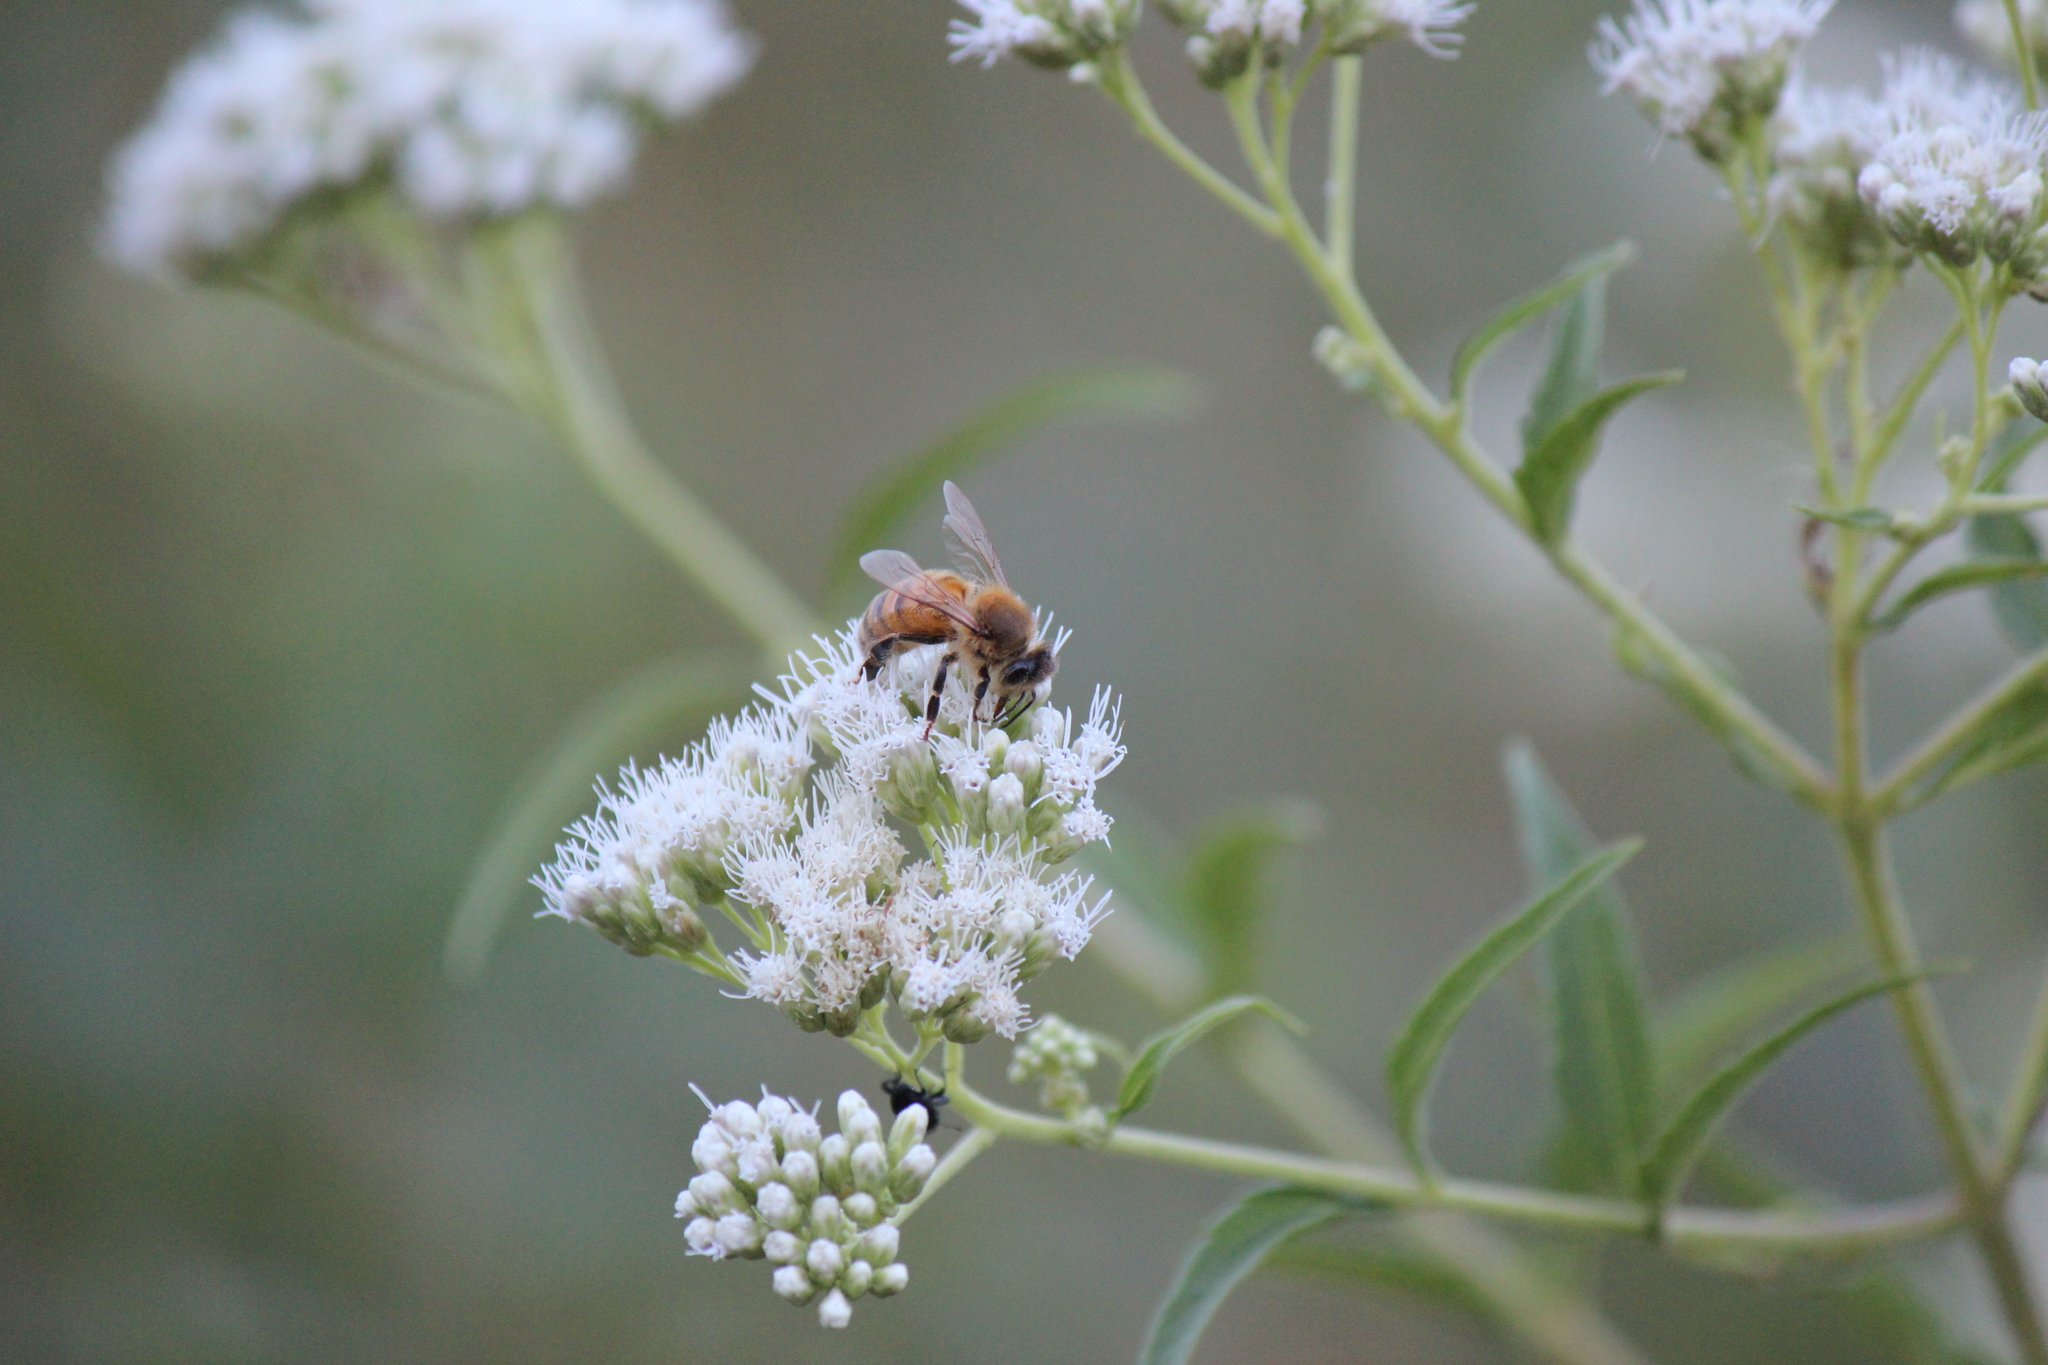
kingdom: Animalia
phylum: Arthropoda
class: Insecta
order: Hymenoptera
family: Apidae
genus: Apis
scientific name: Apis mellifera
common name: Honey bee
